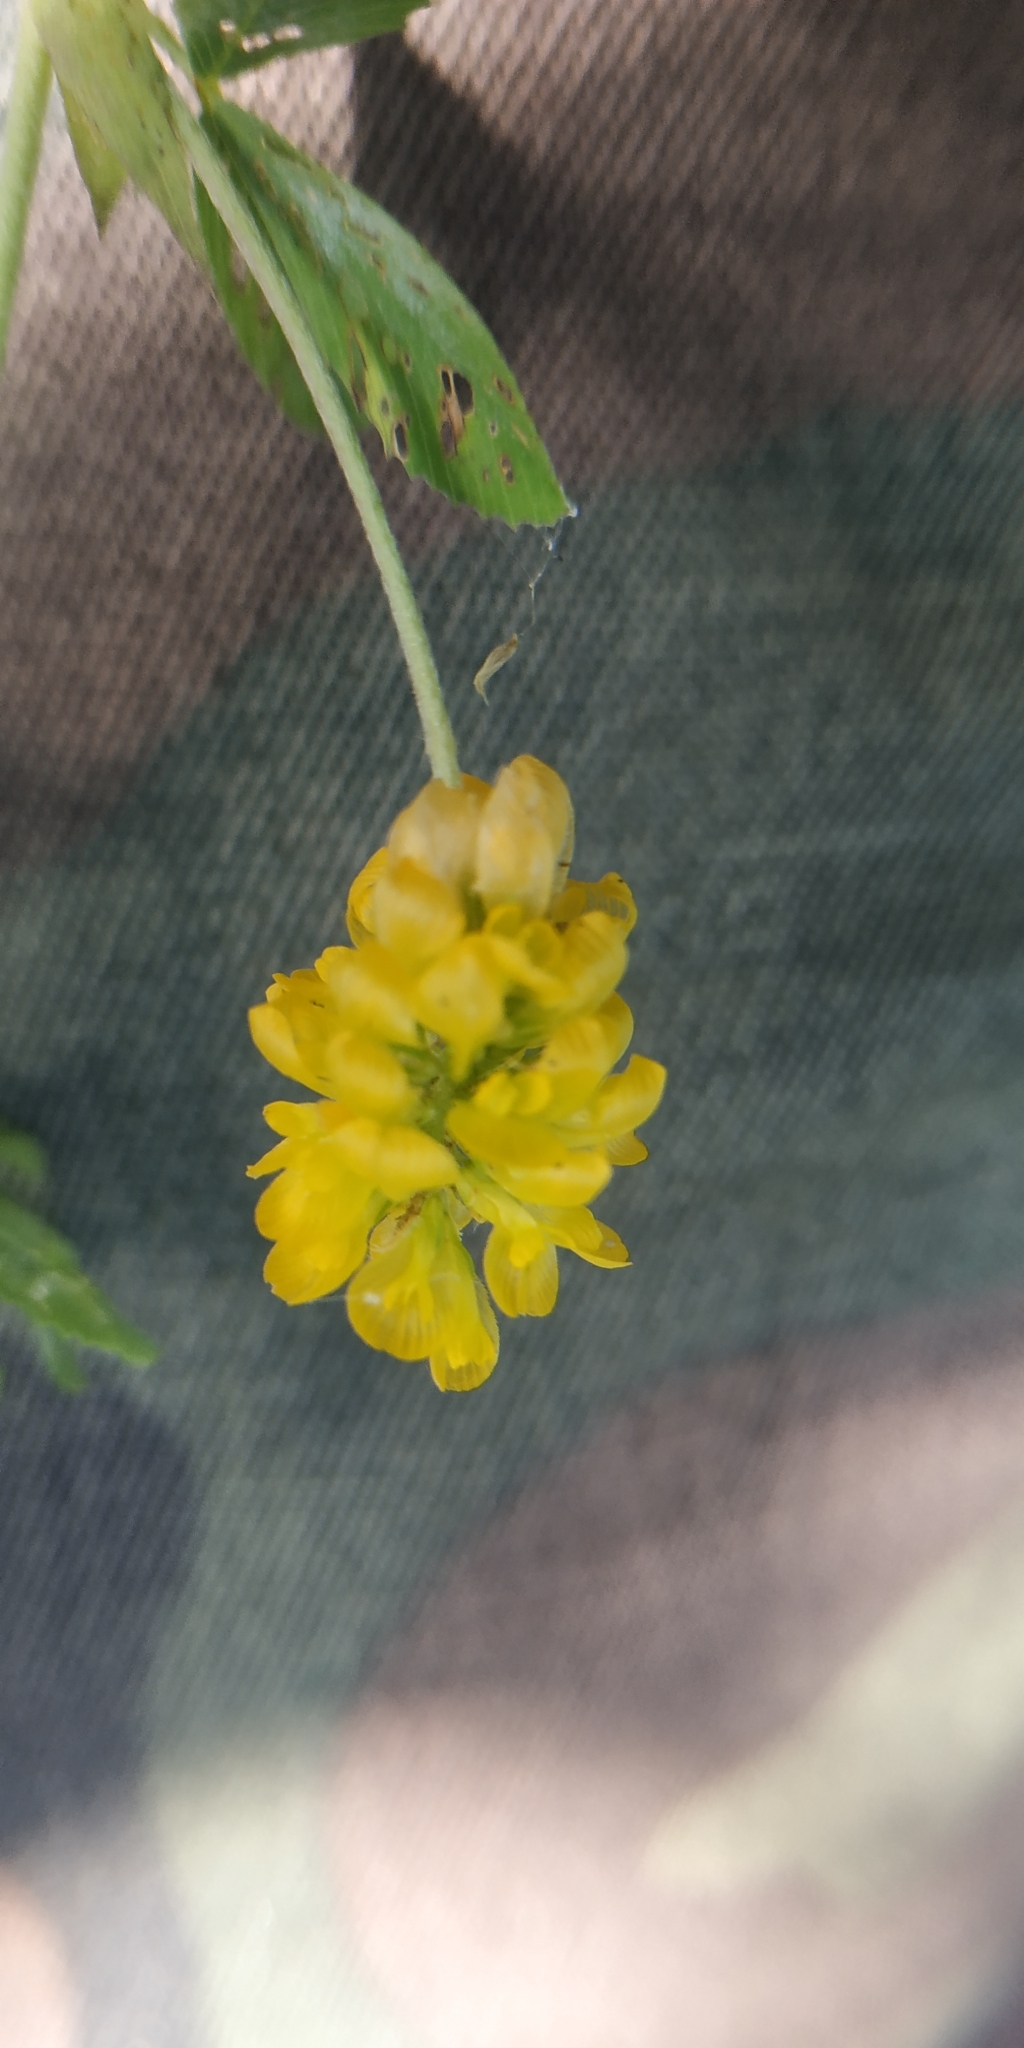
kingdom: Plantae
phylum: Tracheophyta
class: Magnoliopsida
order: Fabales
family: Fabaceae
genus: Trifolium
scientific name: Trifolium aureum
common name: Golden clover
